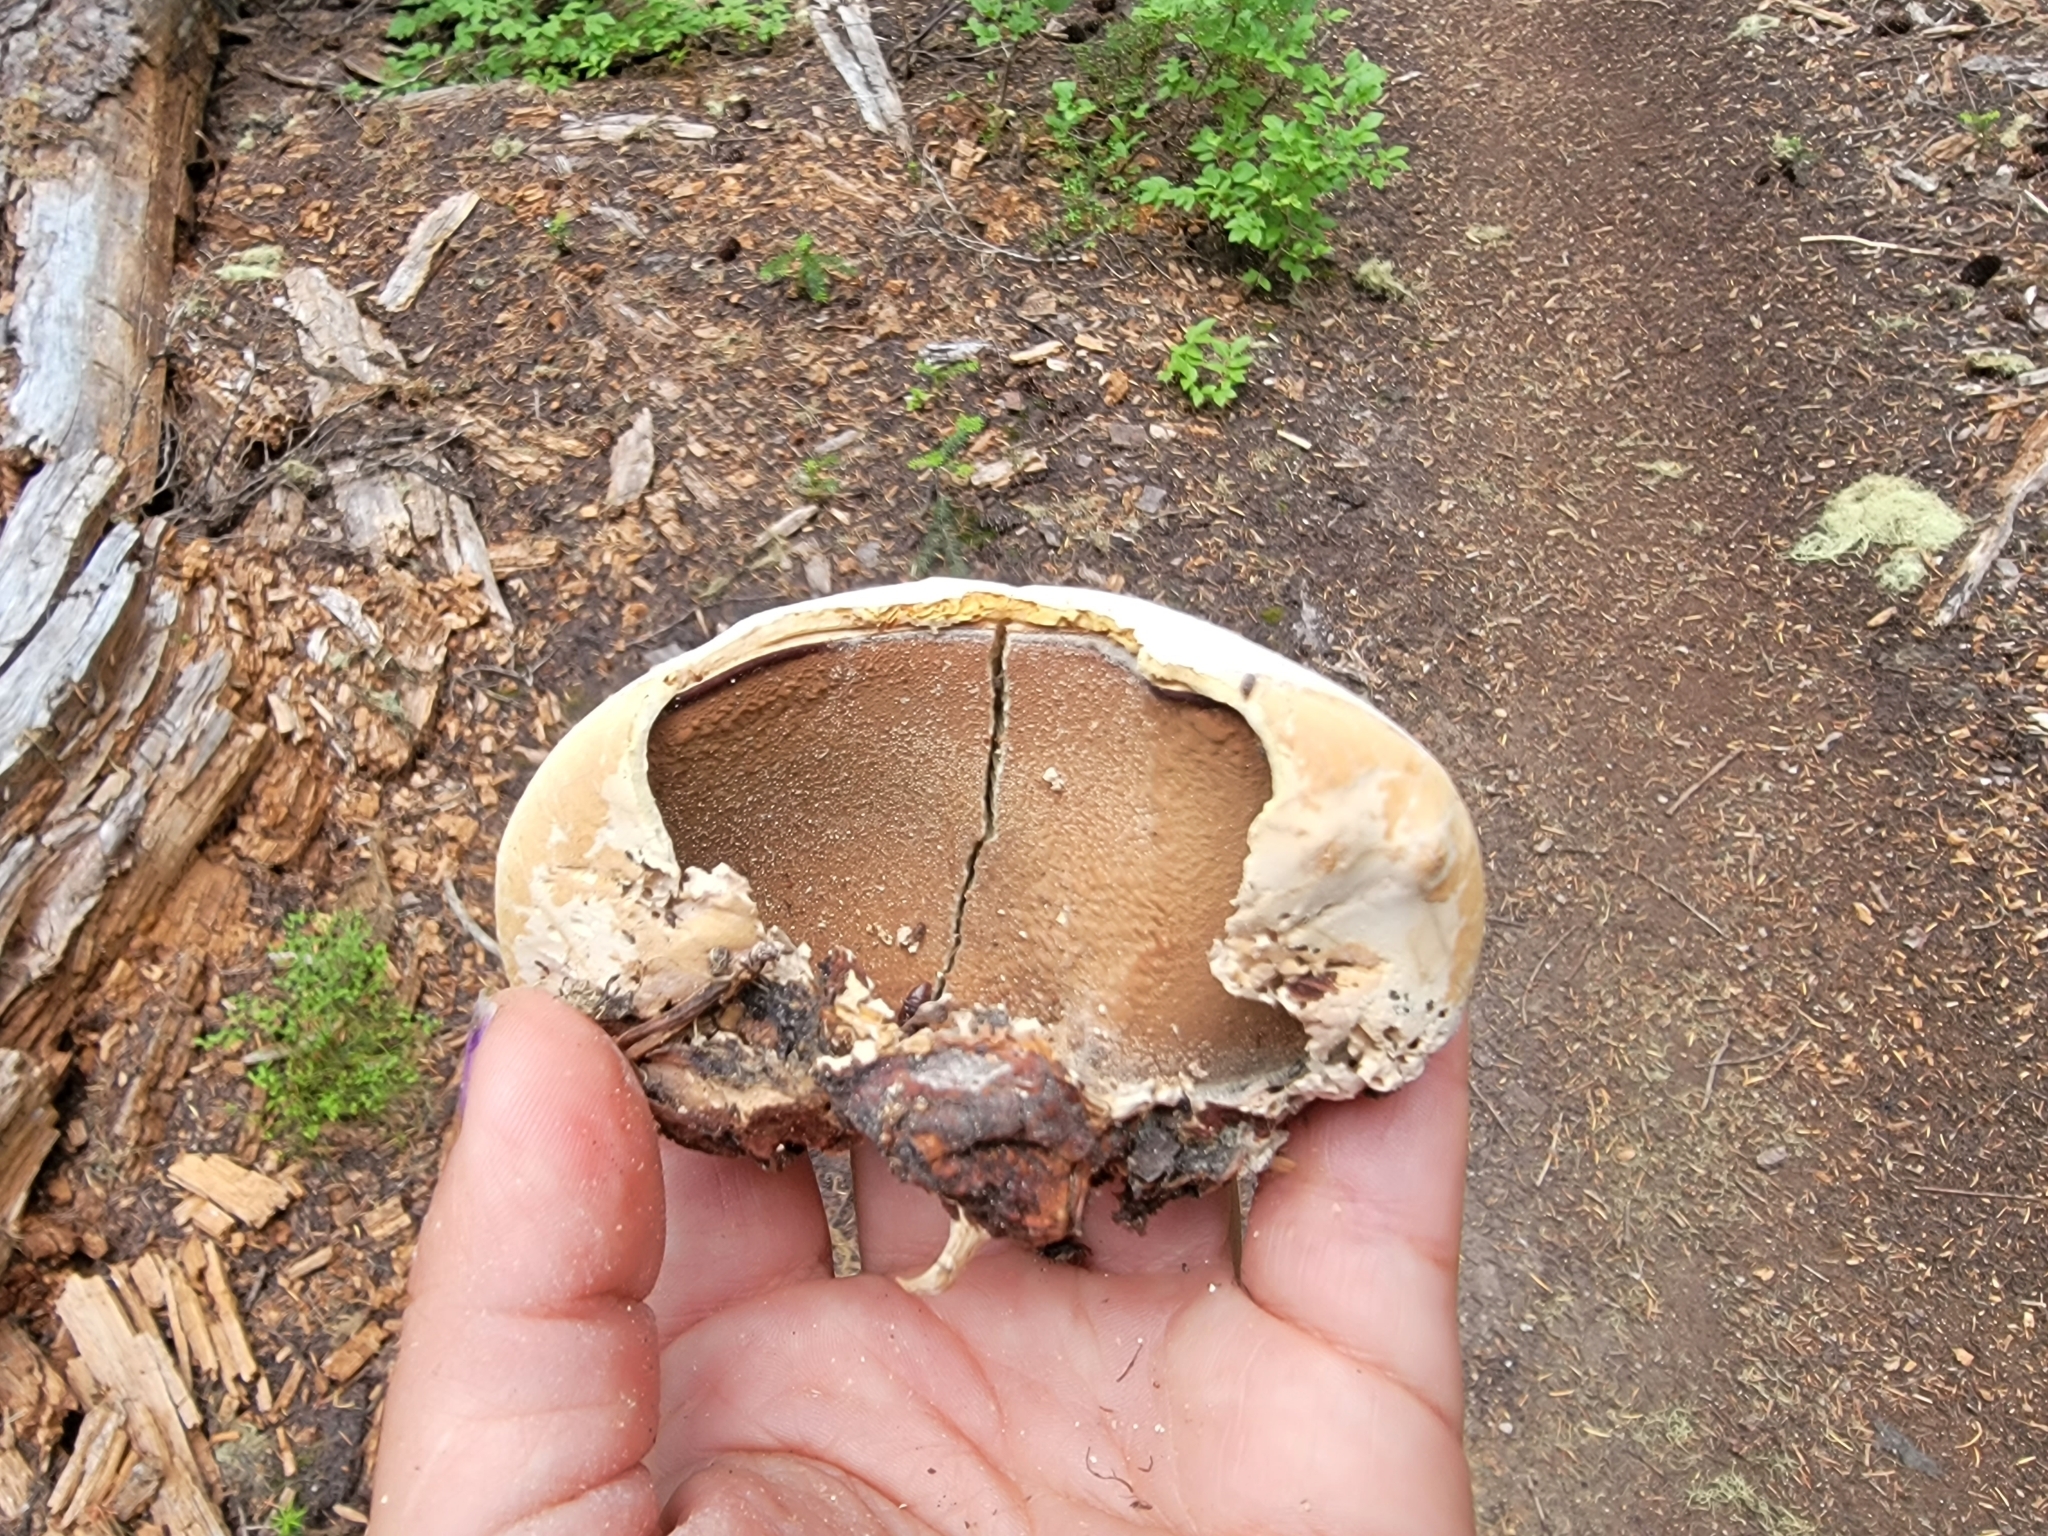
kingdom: Fungi
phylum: Basidiomycota
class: Agaricomycetes
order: Polyporales
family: Polyporaceae
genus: Cryptoporus
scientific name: Cryptoporus volvatus
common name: Veiled polypore
